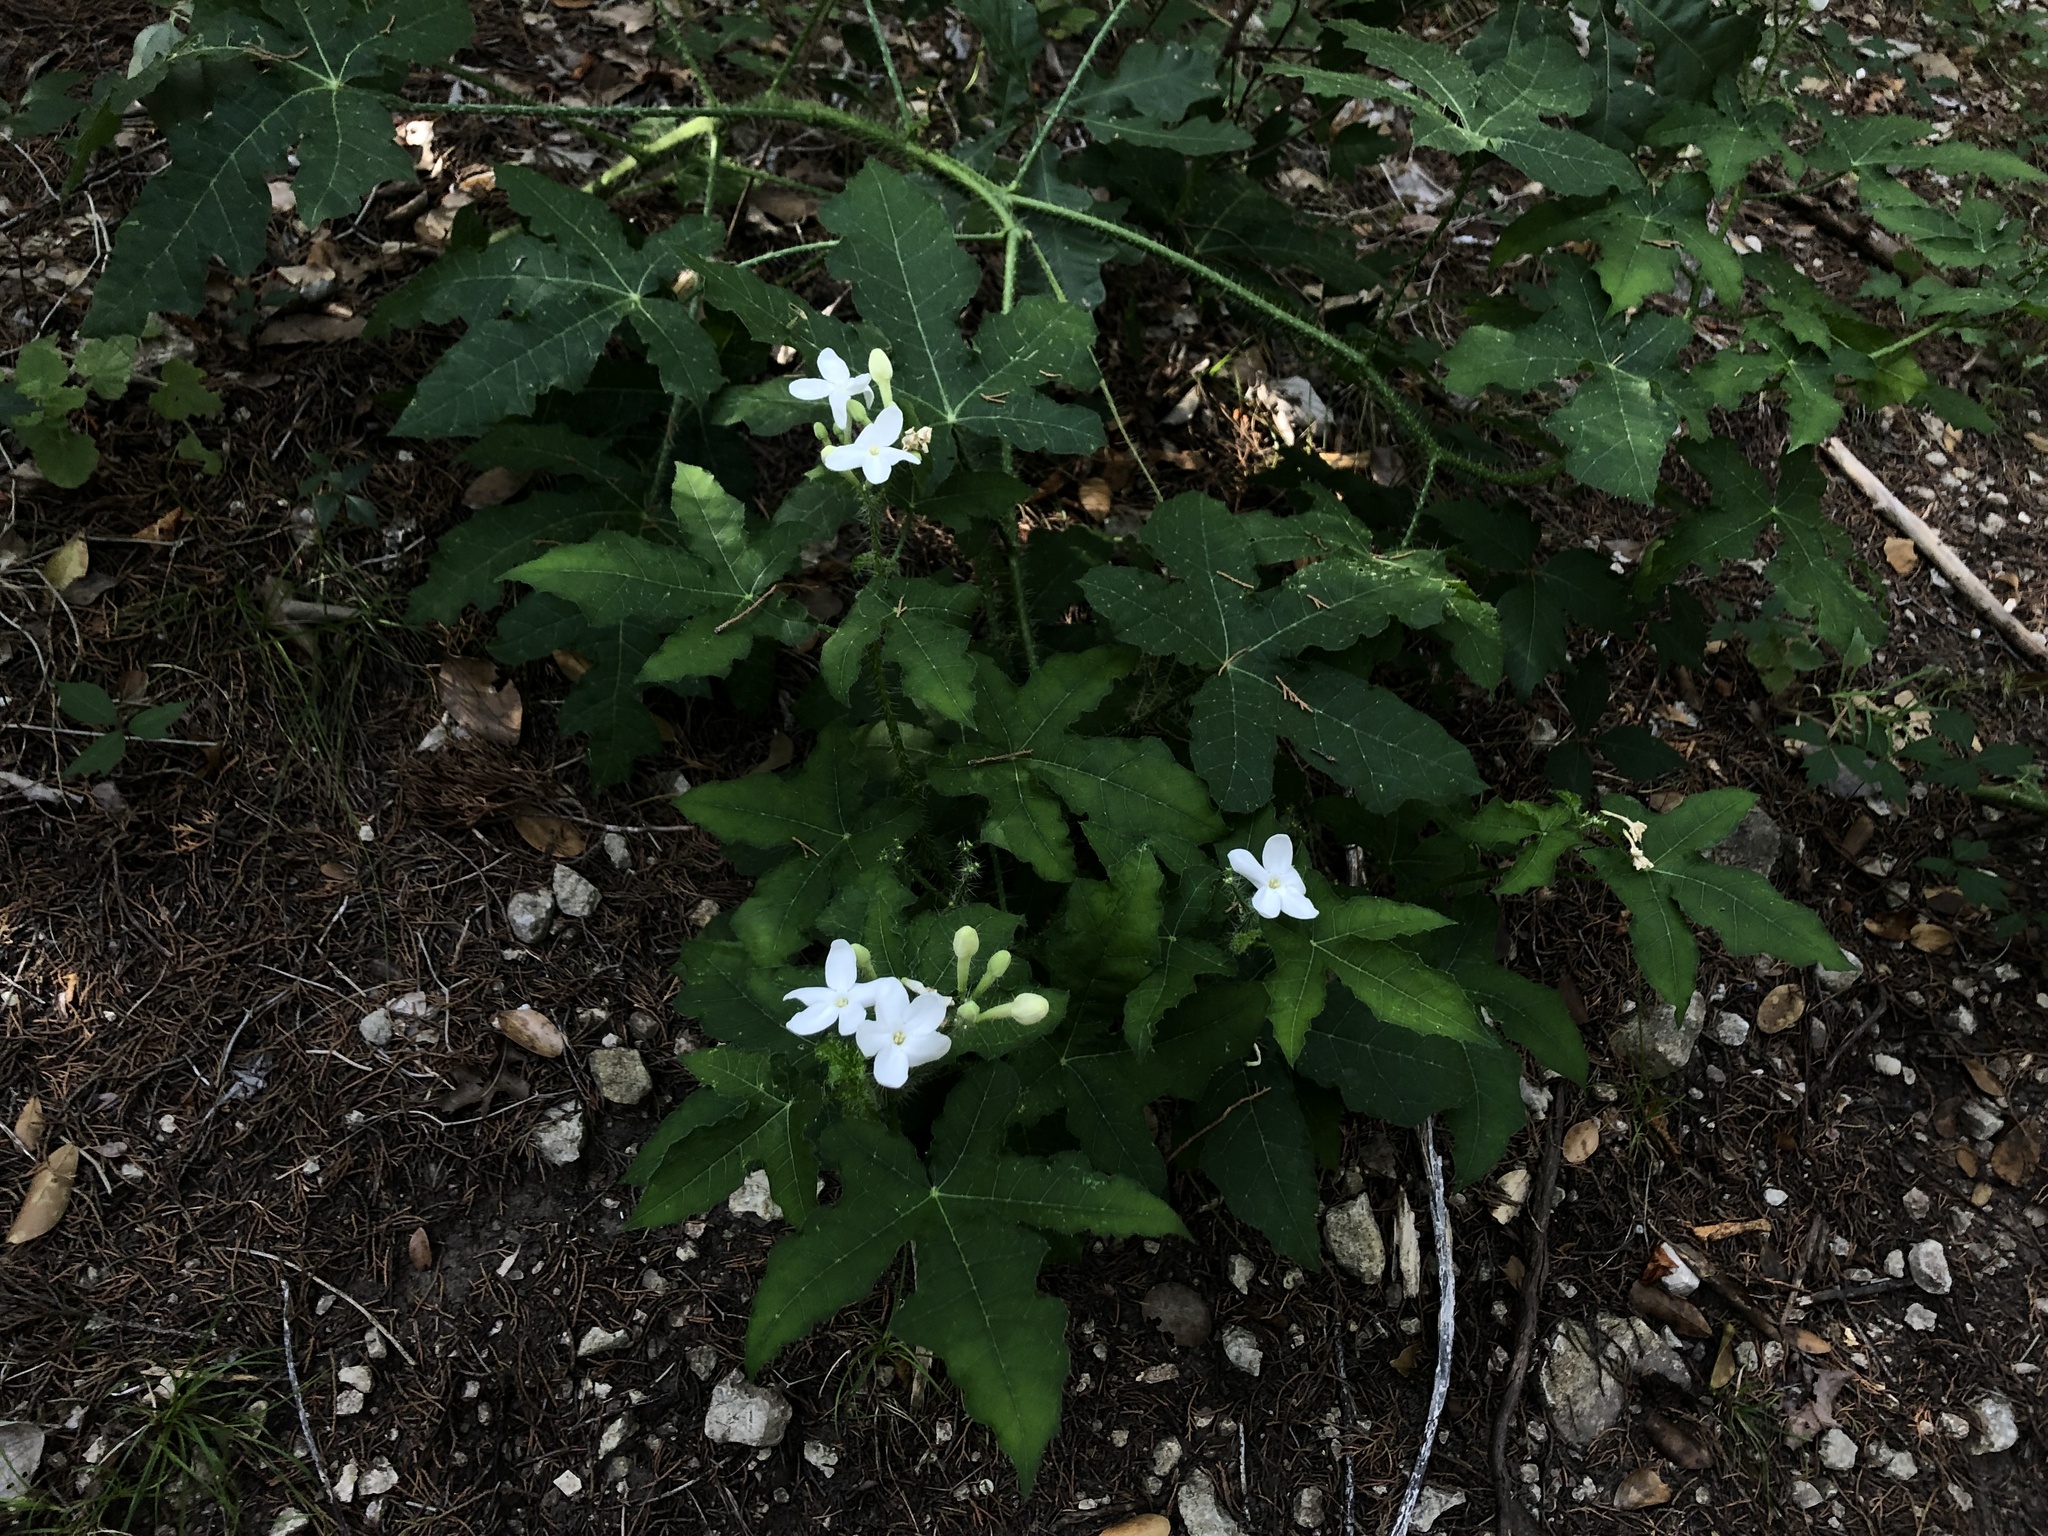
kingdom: Plantae
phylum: Tracheophyta
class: Magnoliopsida
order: Malpighiales
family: Euphorbiaceae
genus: Cnidoscolus
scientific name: Cnidoscolus texanus
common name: Texas bull-nettle
